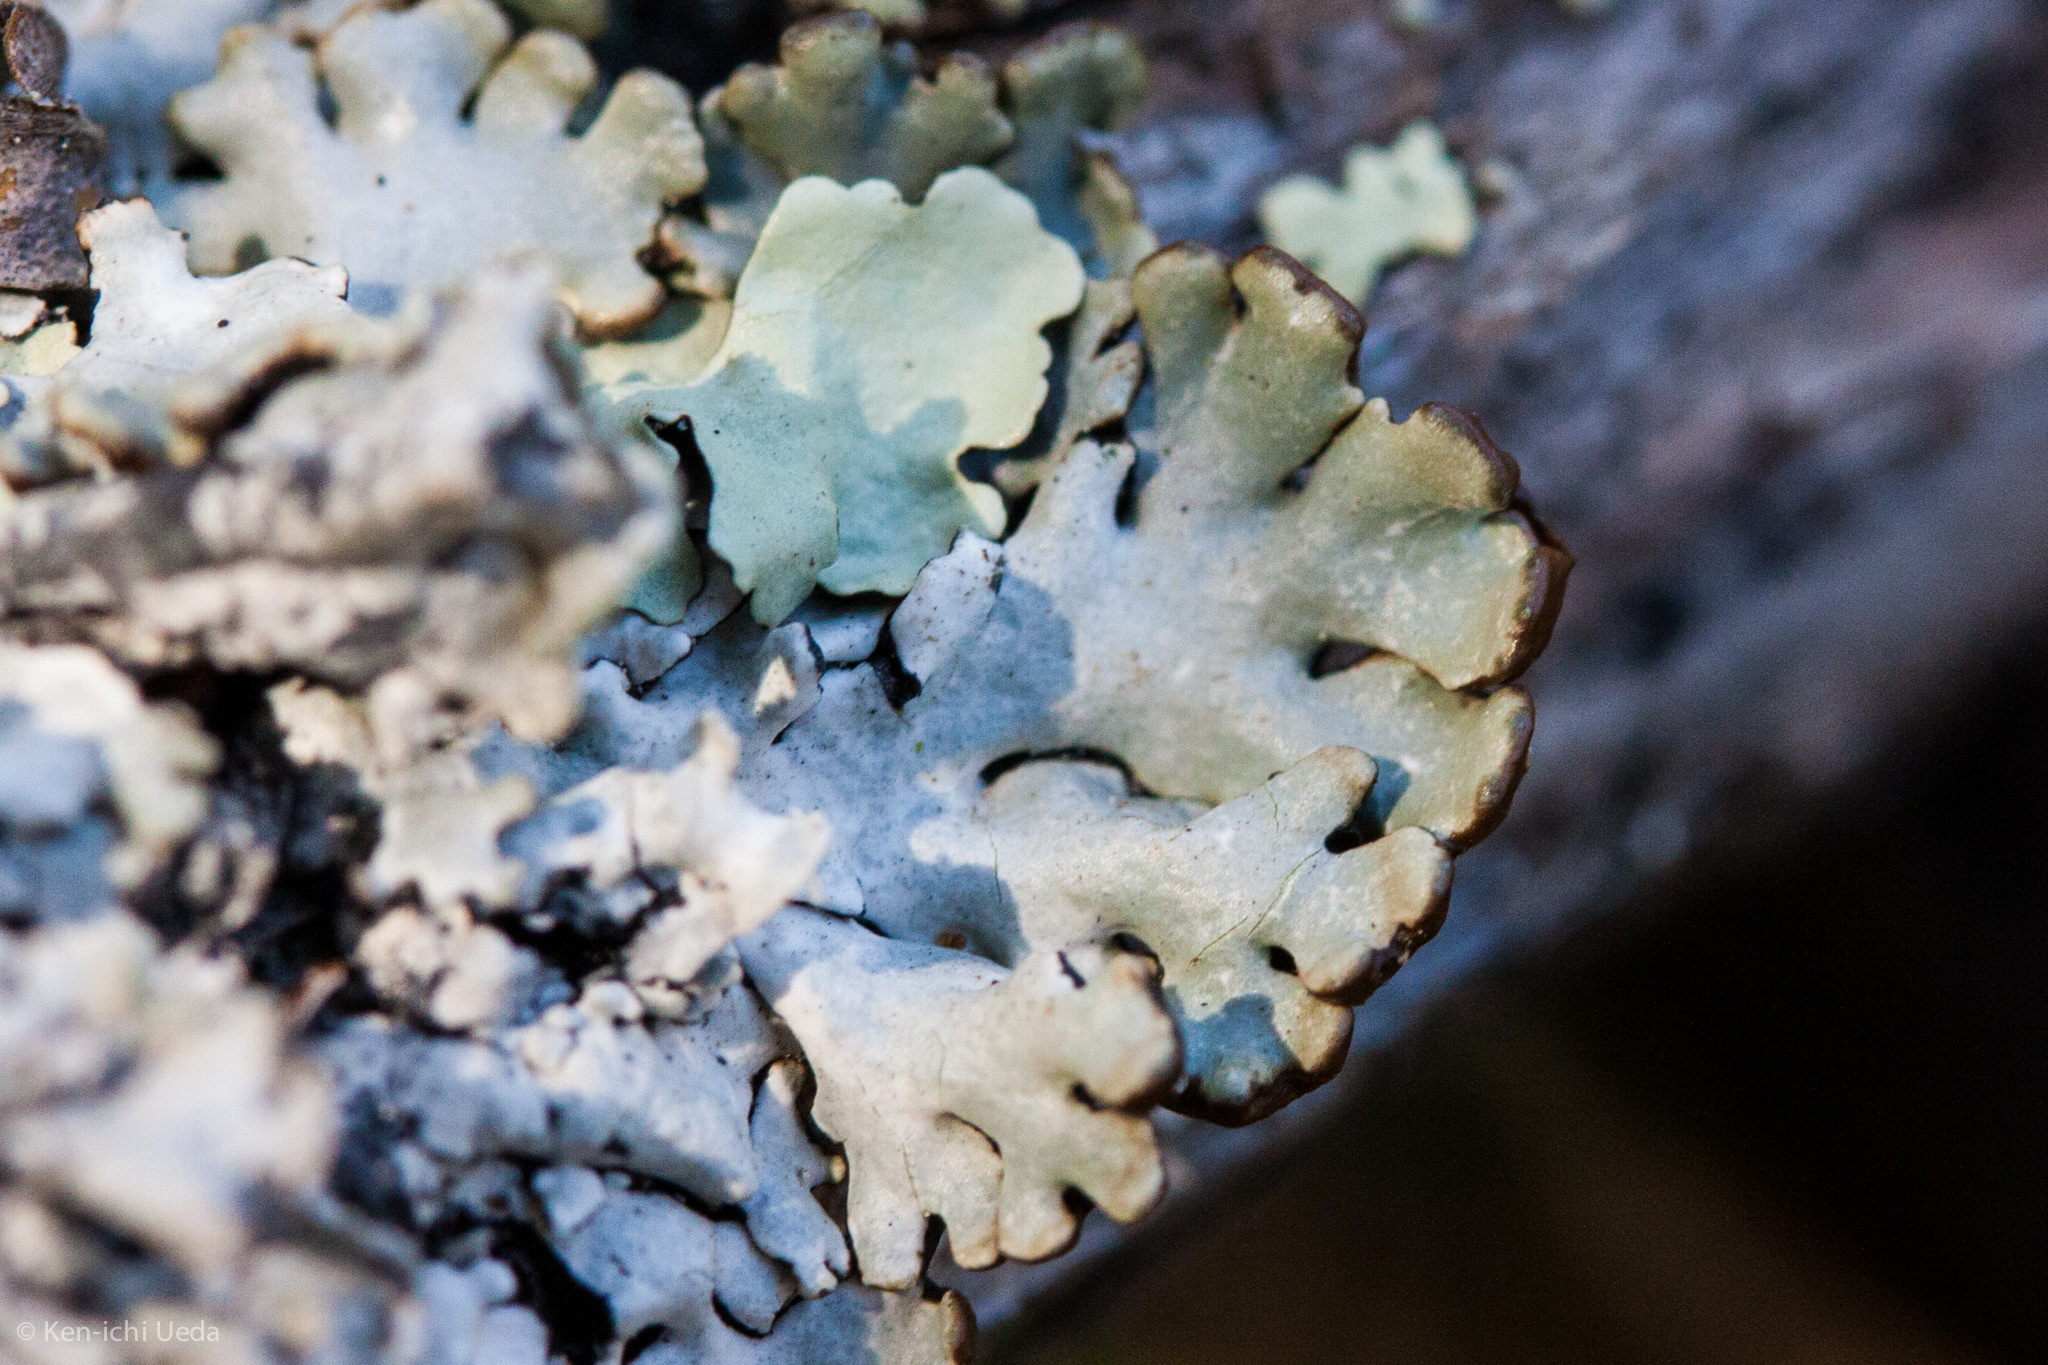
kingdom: Fungi
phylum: Ascomycota
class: Lecanoromycetes
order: Lecanorales
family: Parmeliaceae
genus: Hypogymnia
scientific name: Hypogymnia physodes
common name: Dark crottle
